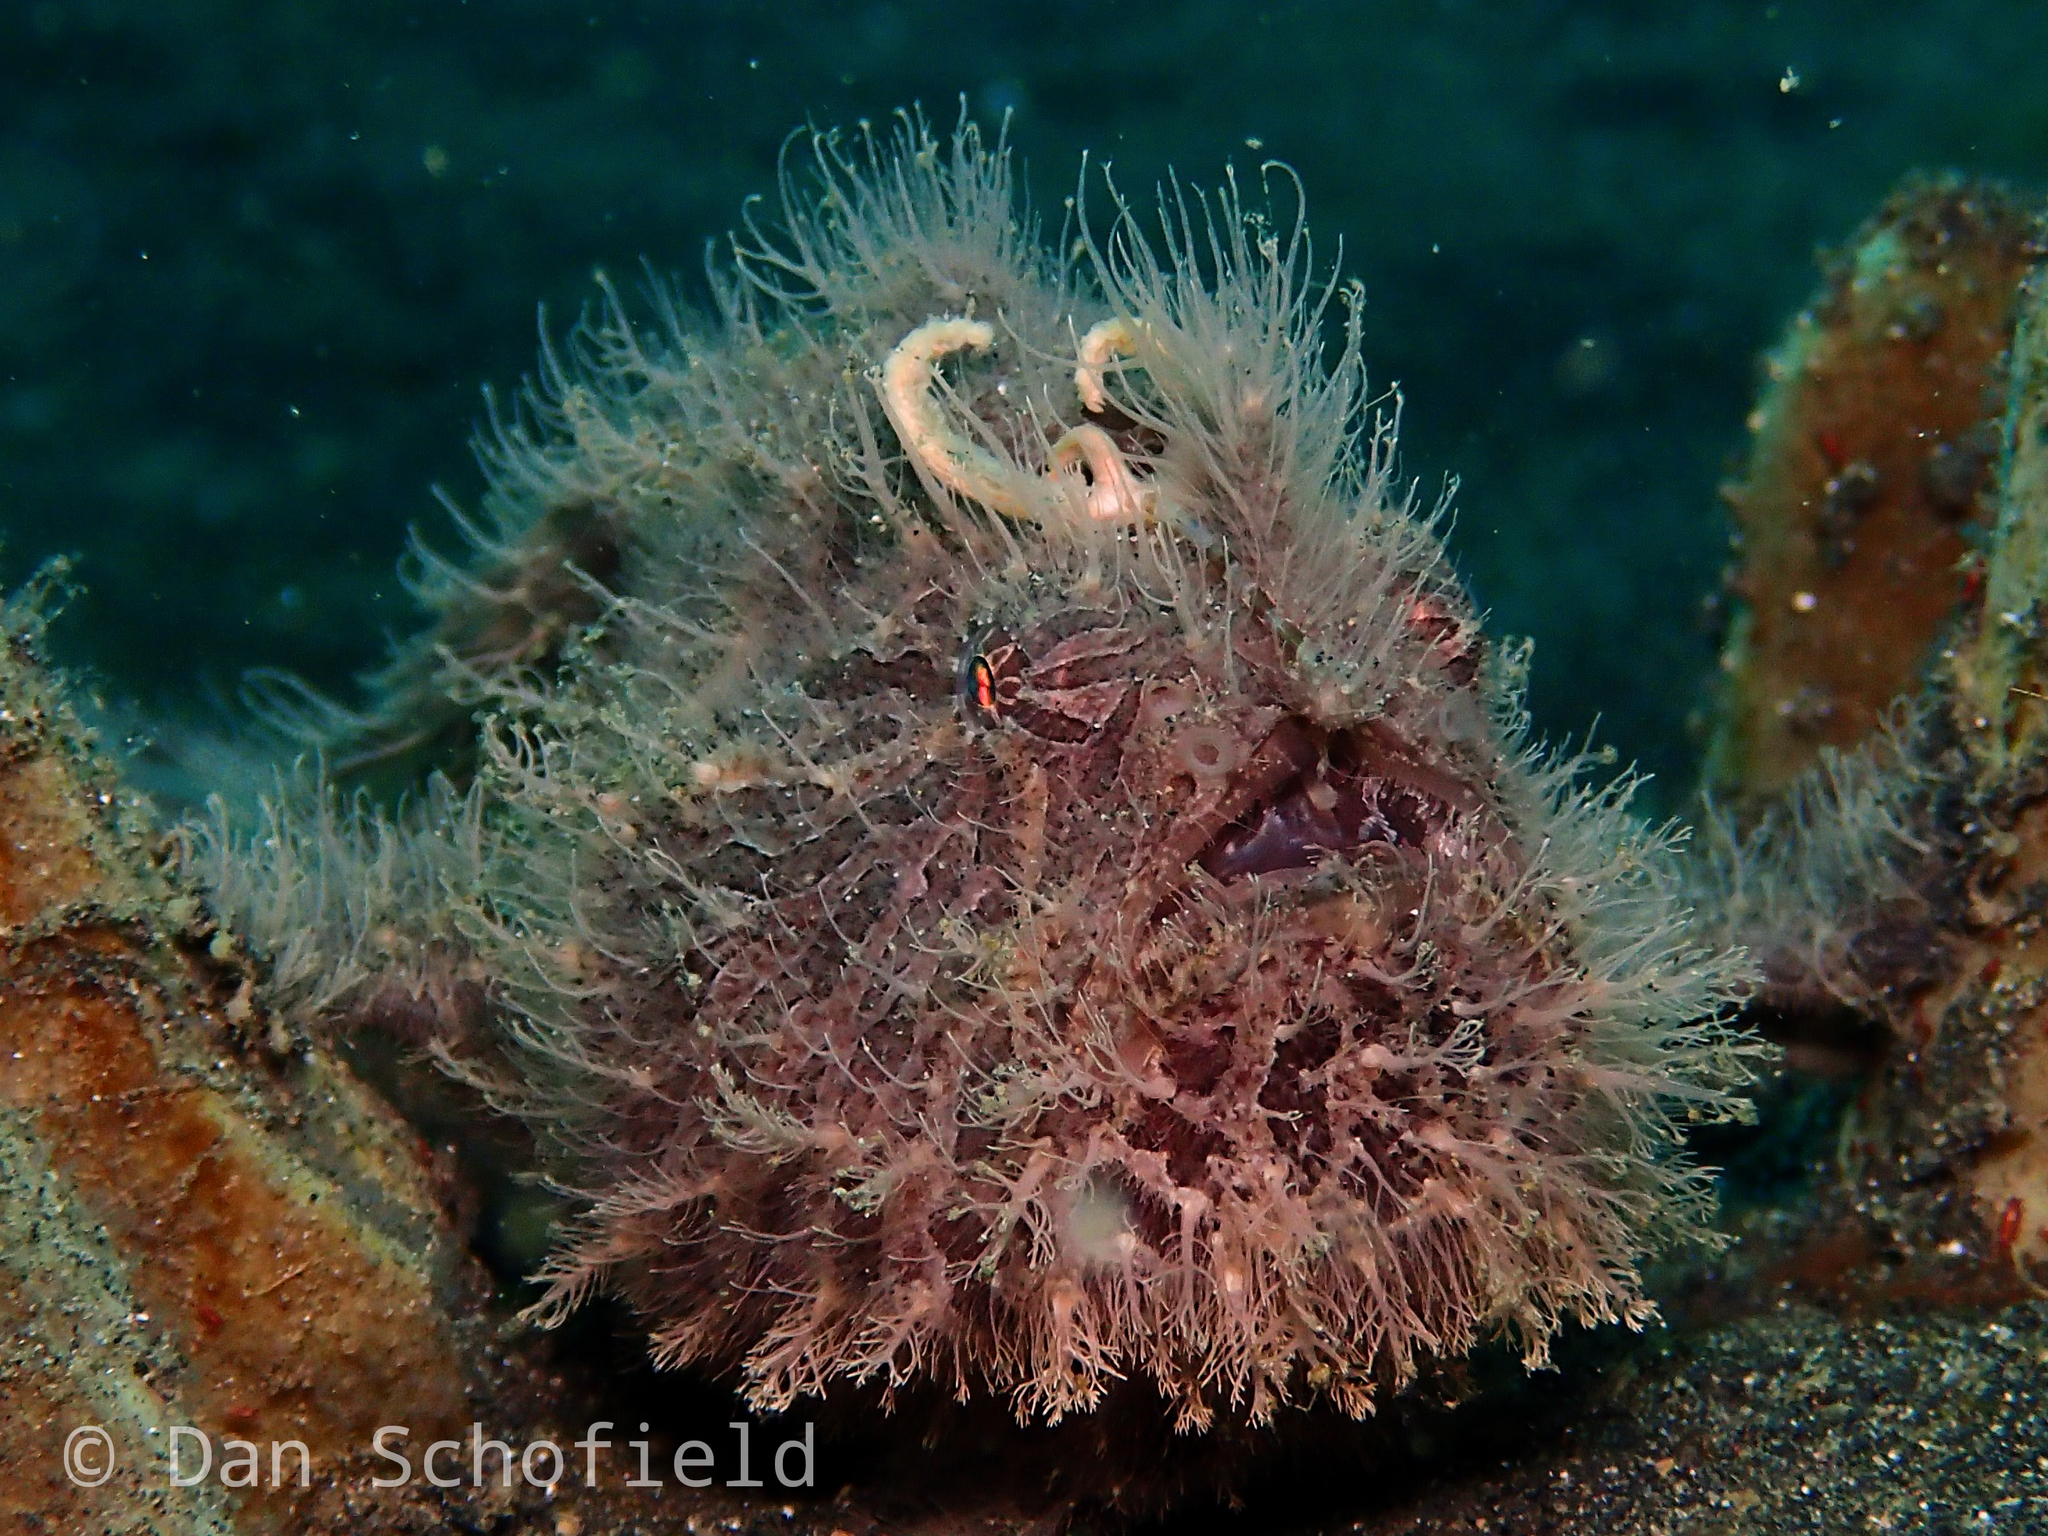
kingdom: Animalia
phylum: Chordata
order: Lophiiformes
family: Antennariidae
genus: Antennarius
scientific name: Antennarius striatus
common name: Striated frogfish
